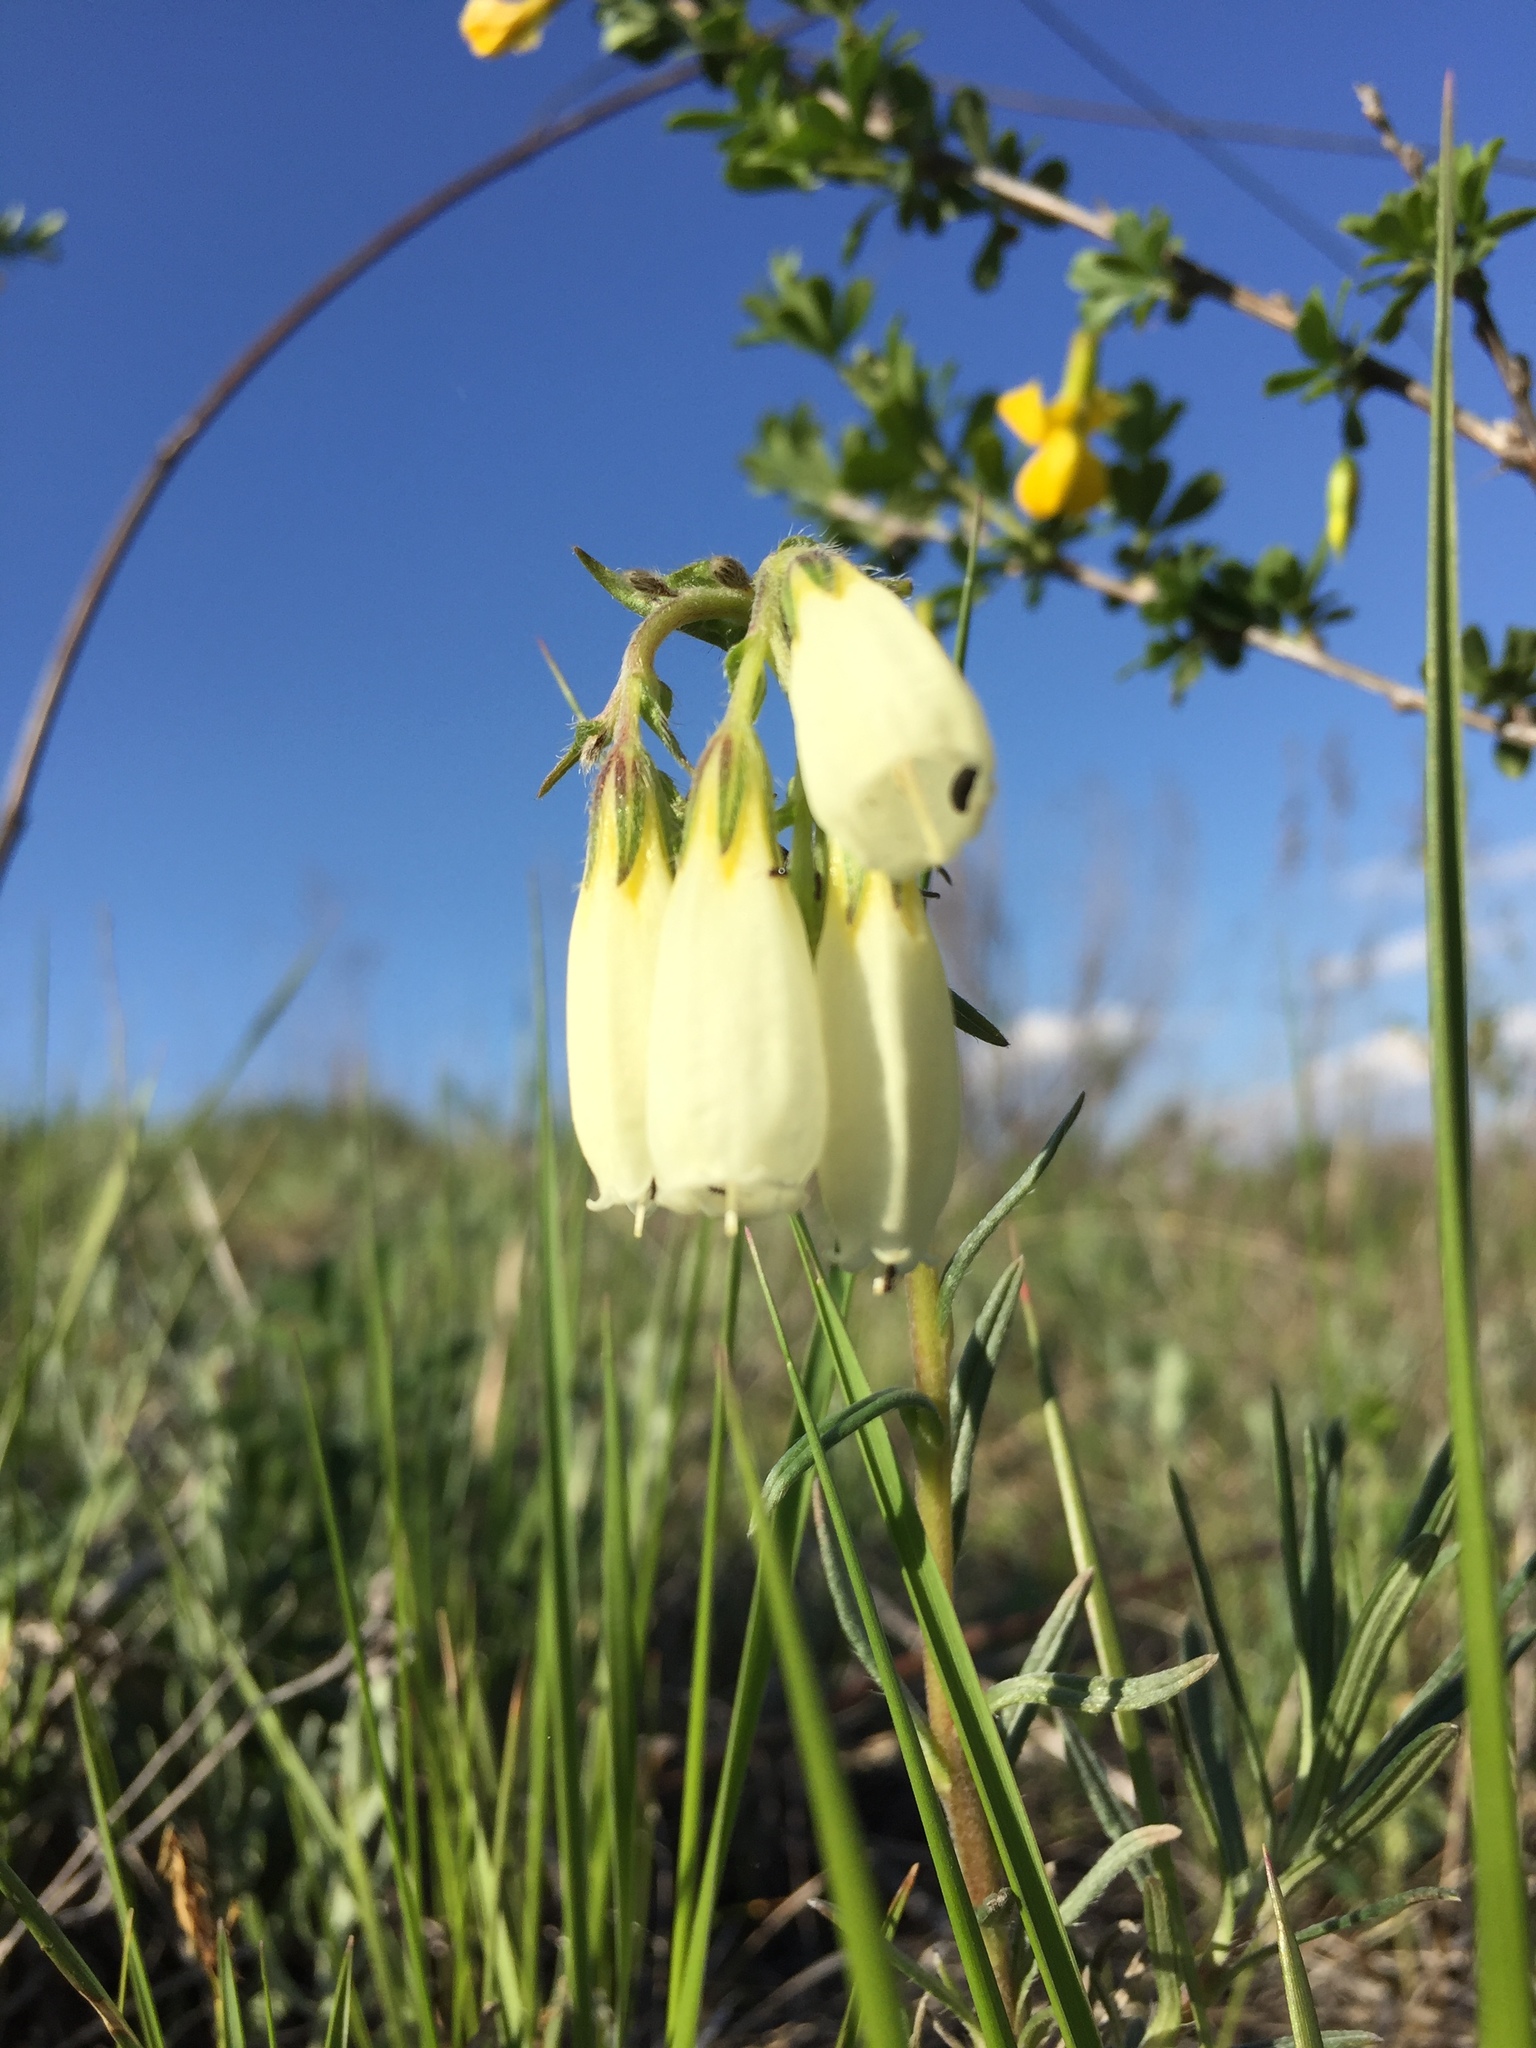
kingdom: Plantae
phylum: Tracheophyta
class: Magnoliopsida
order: Boraginales
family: Boraginaceae
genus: Onosma
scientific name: Onosma simplicissima
